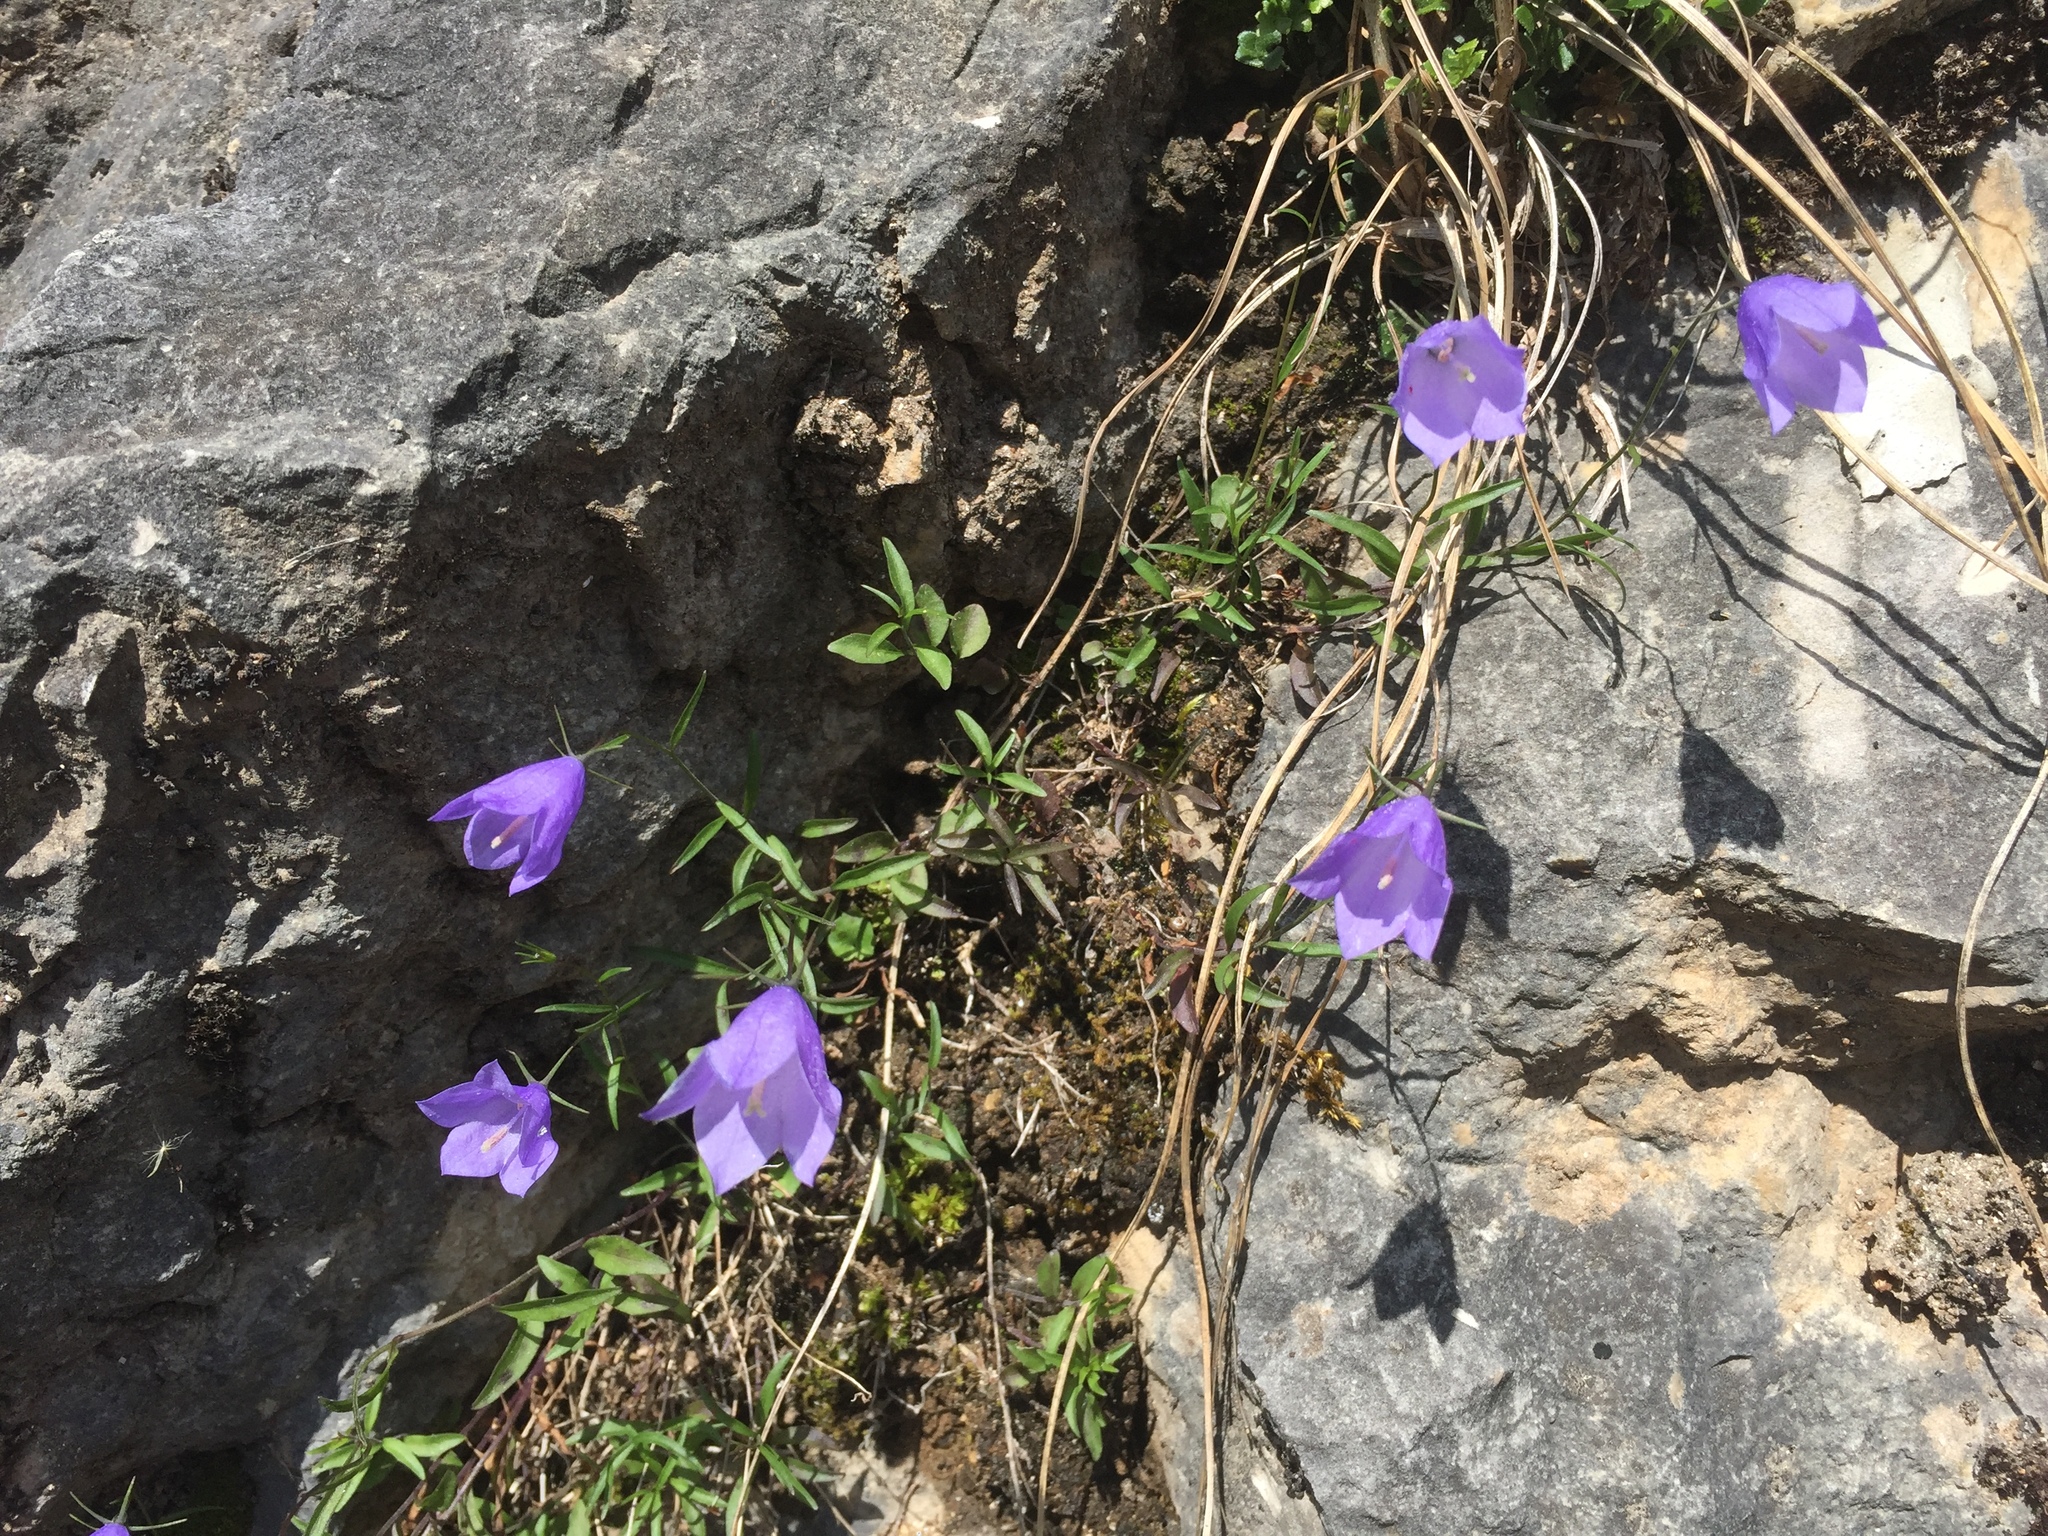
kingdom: Plantae
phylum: Tracheophyta
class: Magnoliopsida
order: Asterales
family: Campanulaceae
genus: Campanula
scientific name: Campanula rotundifolia
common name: Harebell
